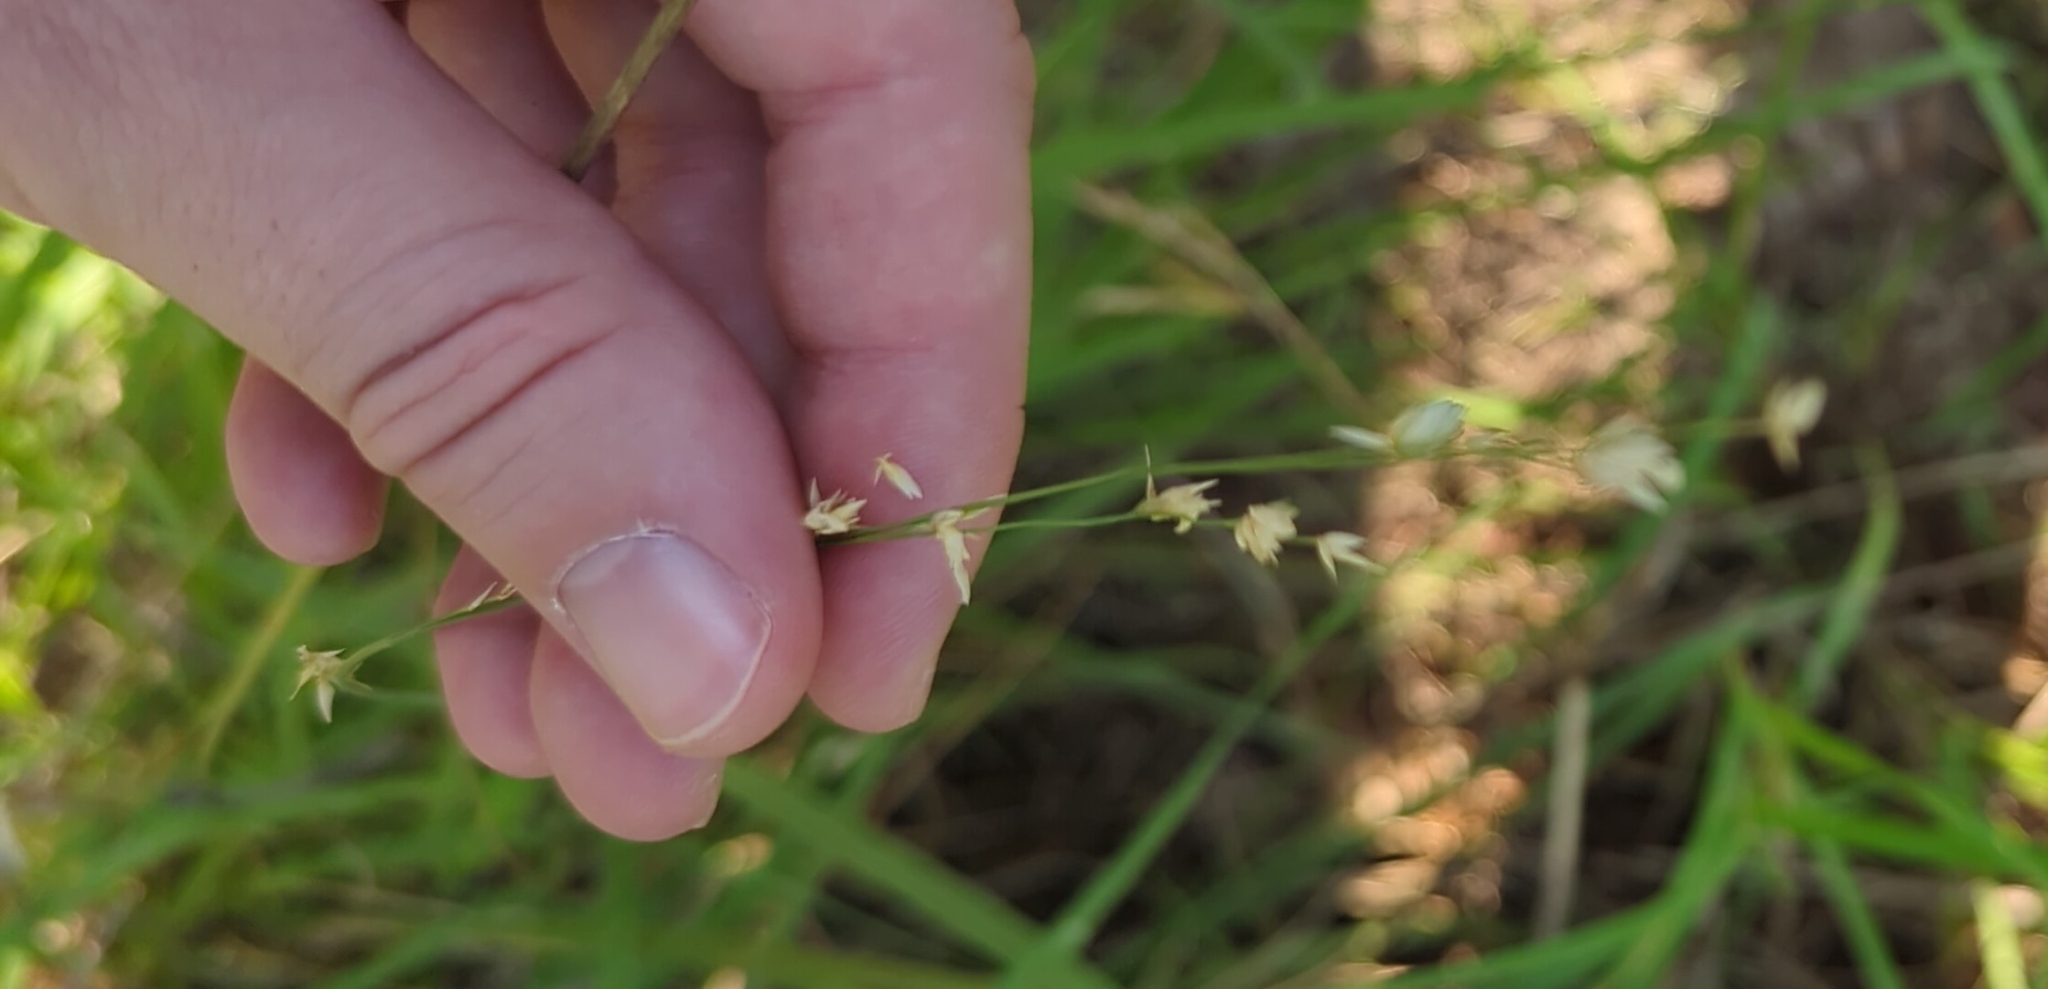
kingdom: Plantae
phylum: Tracheophyta
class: Liliopsida
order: Poales
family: Poaceae
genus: Eragrostis
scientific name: Eragrostis superba
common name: Wilman lovegrass
